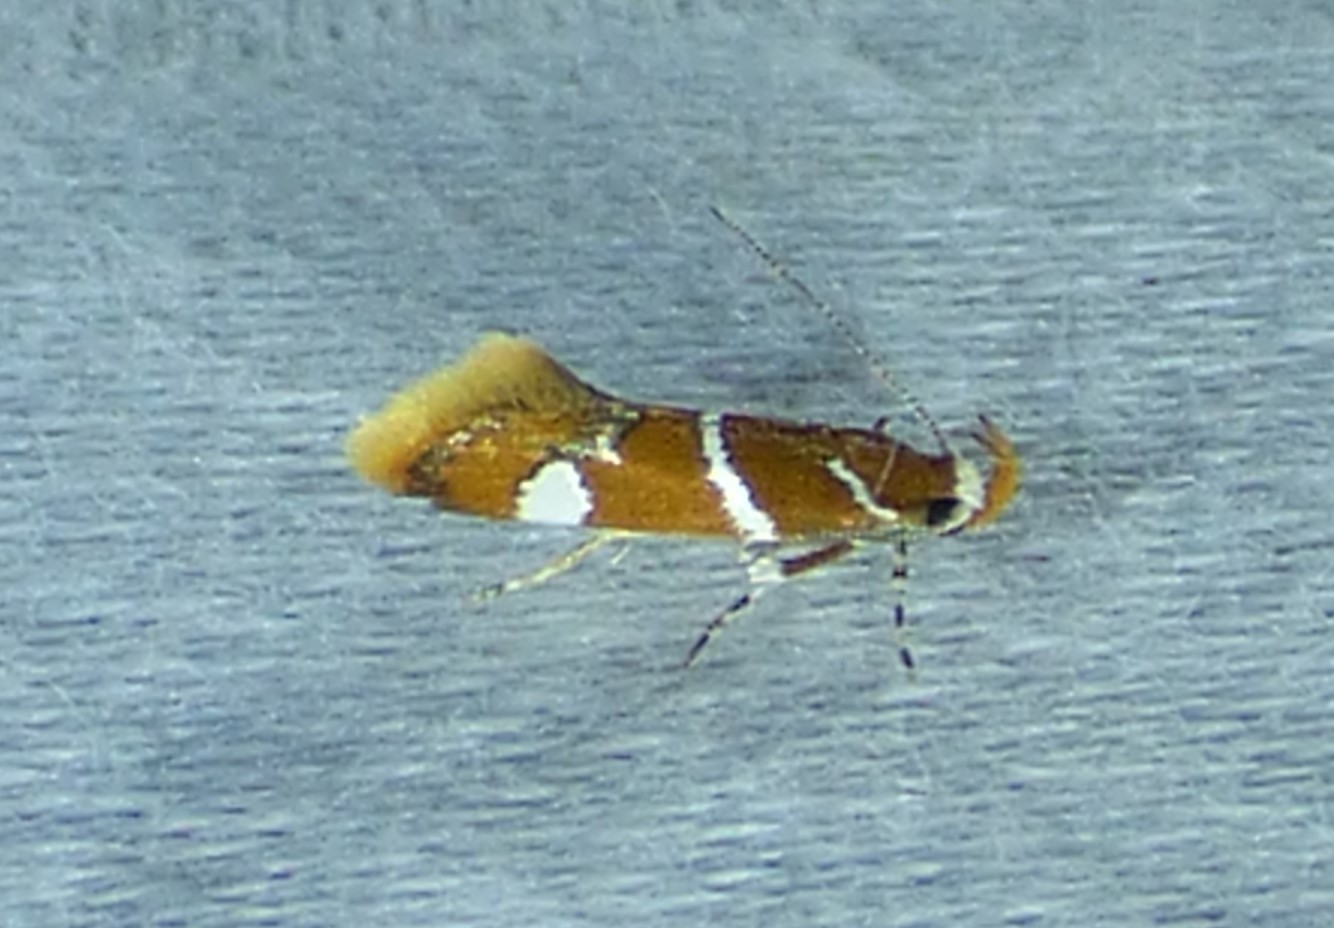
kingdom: Animalia
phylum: Arthropoda
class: Insecta
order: Lepidoptera
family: Oecophoridae
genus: Promalactis
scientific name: Promalactis suzukiella
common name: Moth
